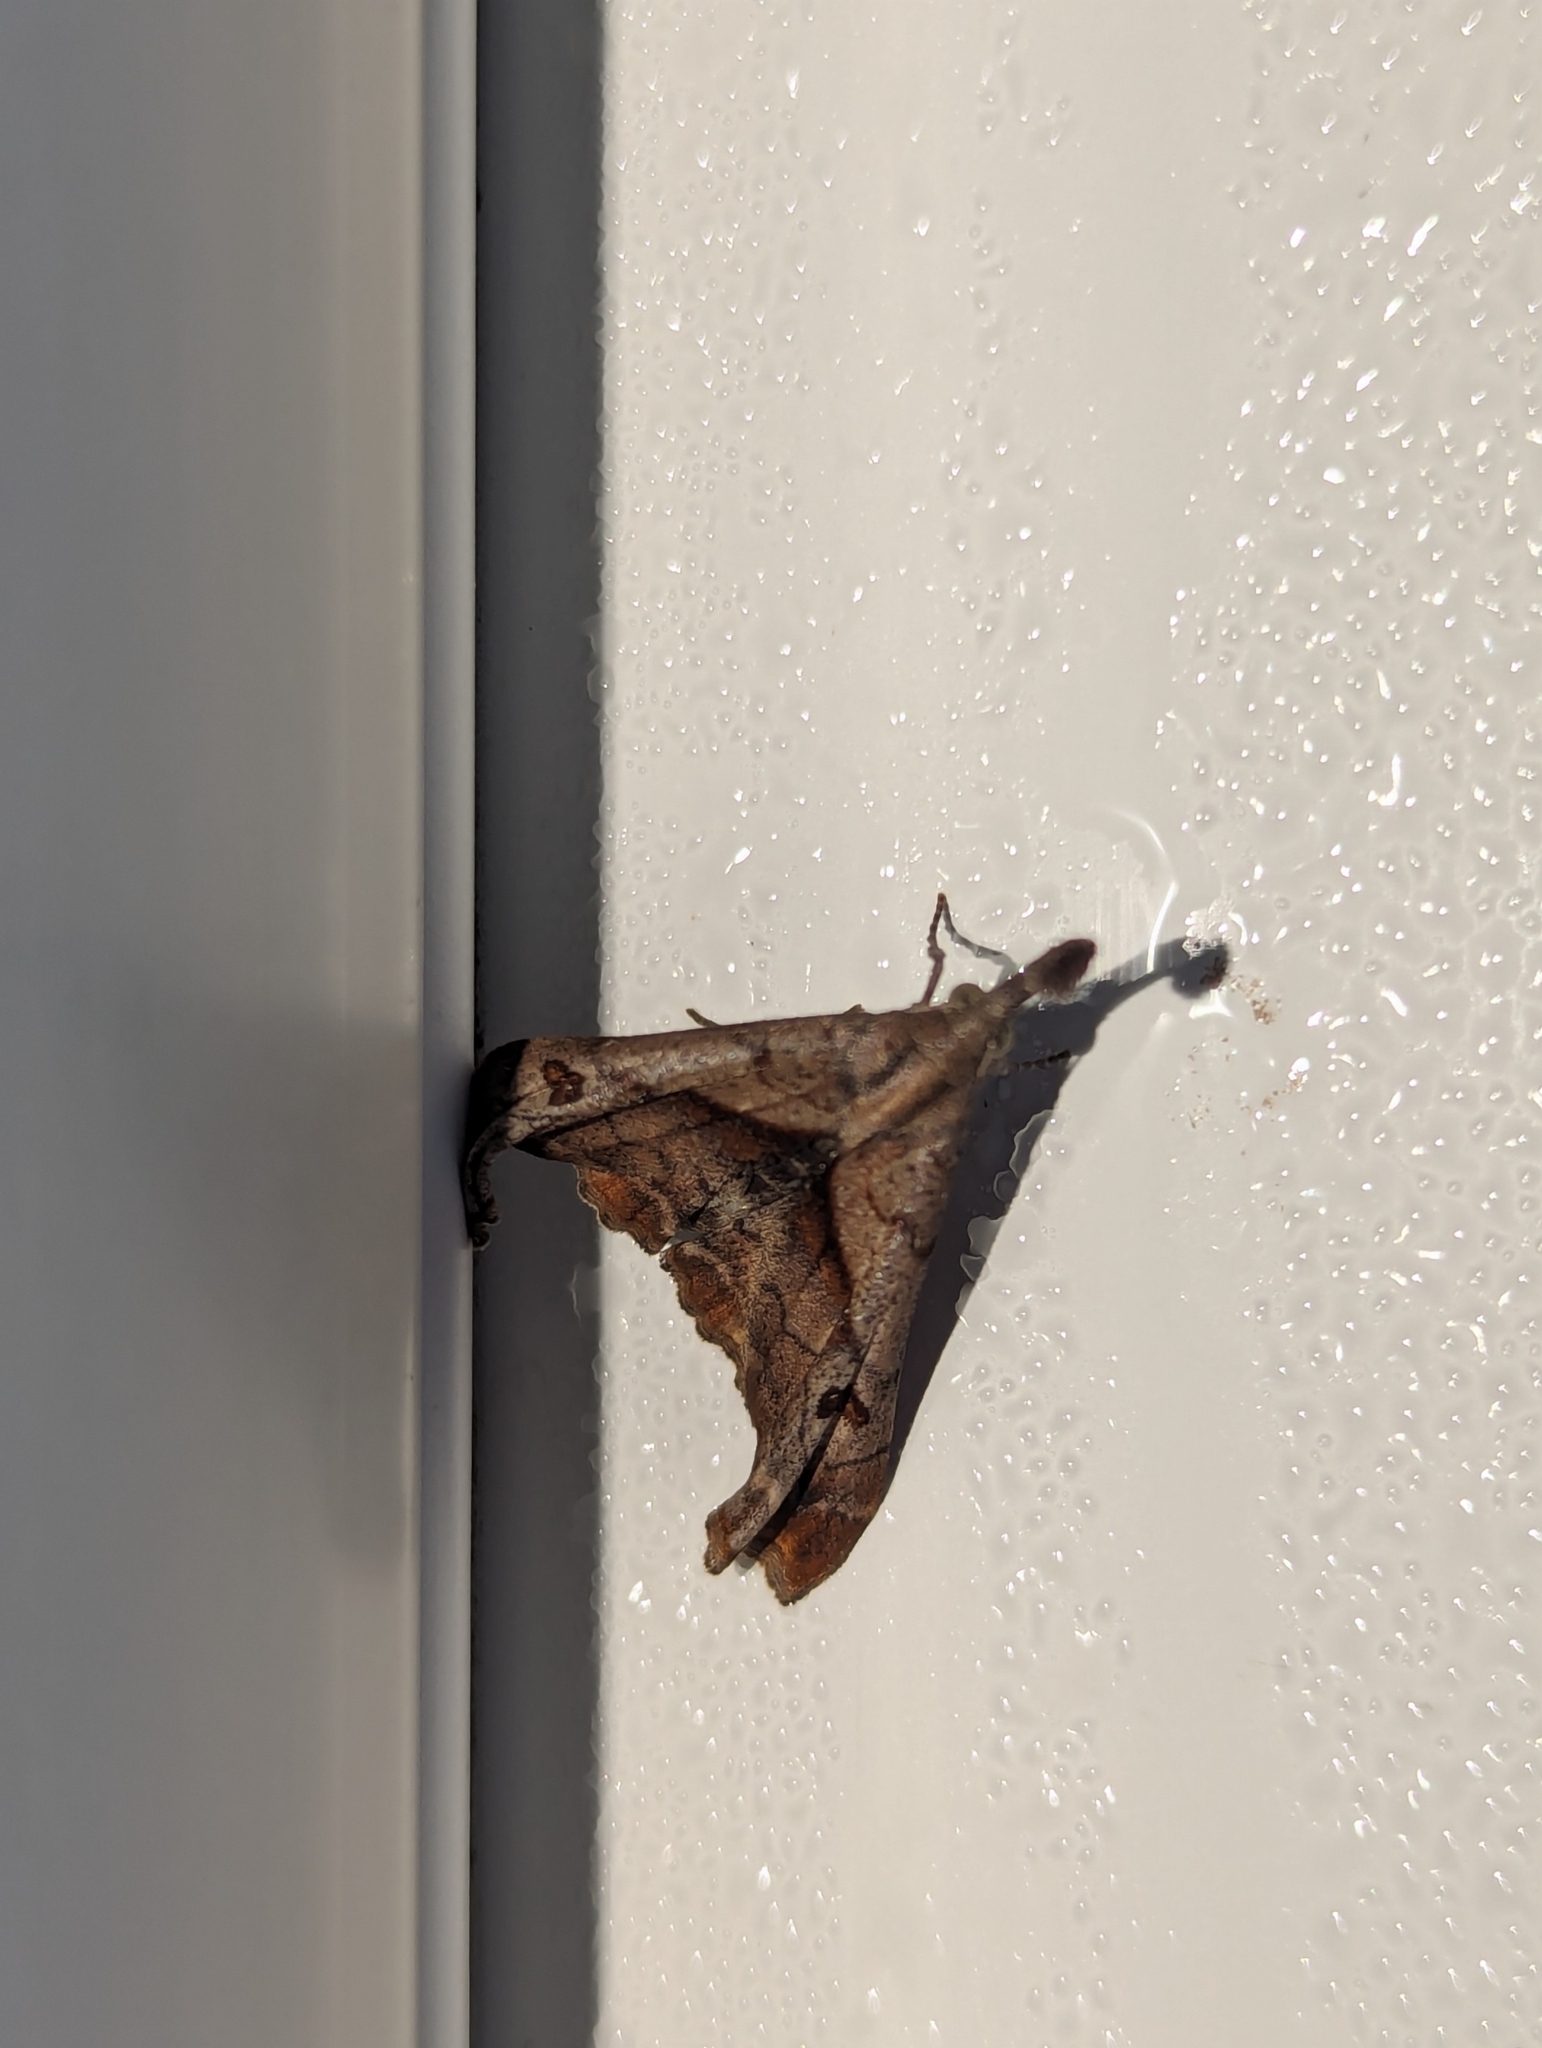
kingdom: Animalia
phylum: Arthropoda
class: Insecta
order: Lepidoptera
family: Erebidae
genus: Palthis
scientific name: Palthis angulalis
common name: Dark-spotted palthis moth
